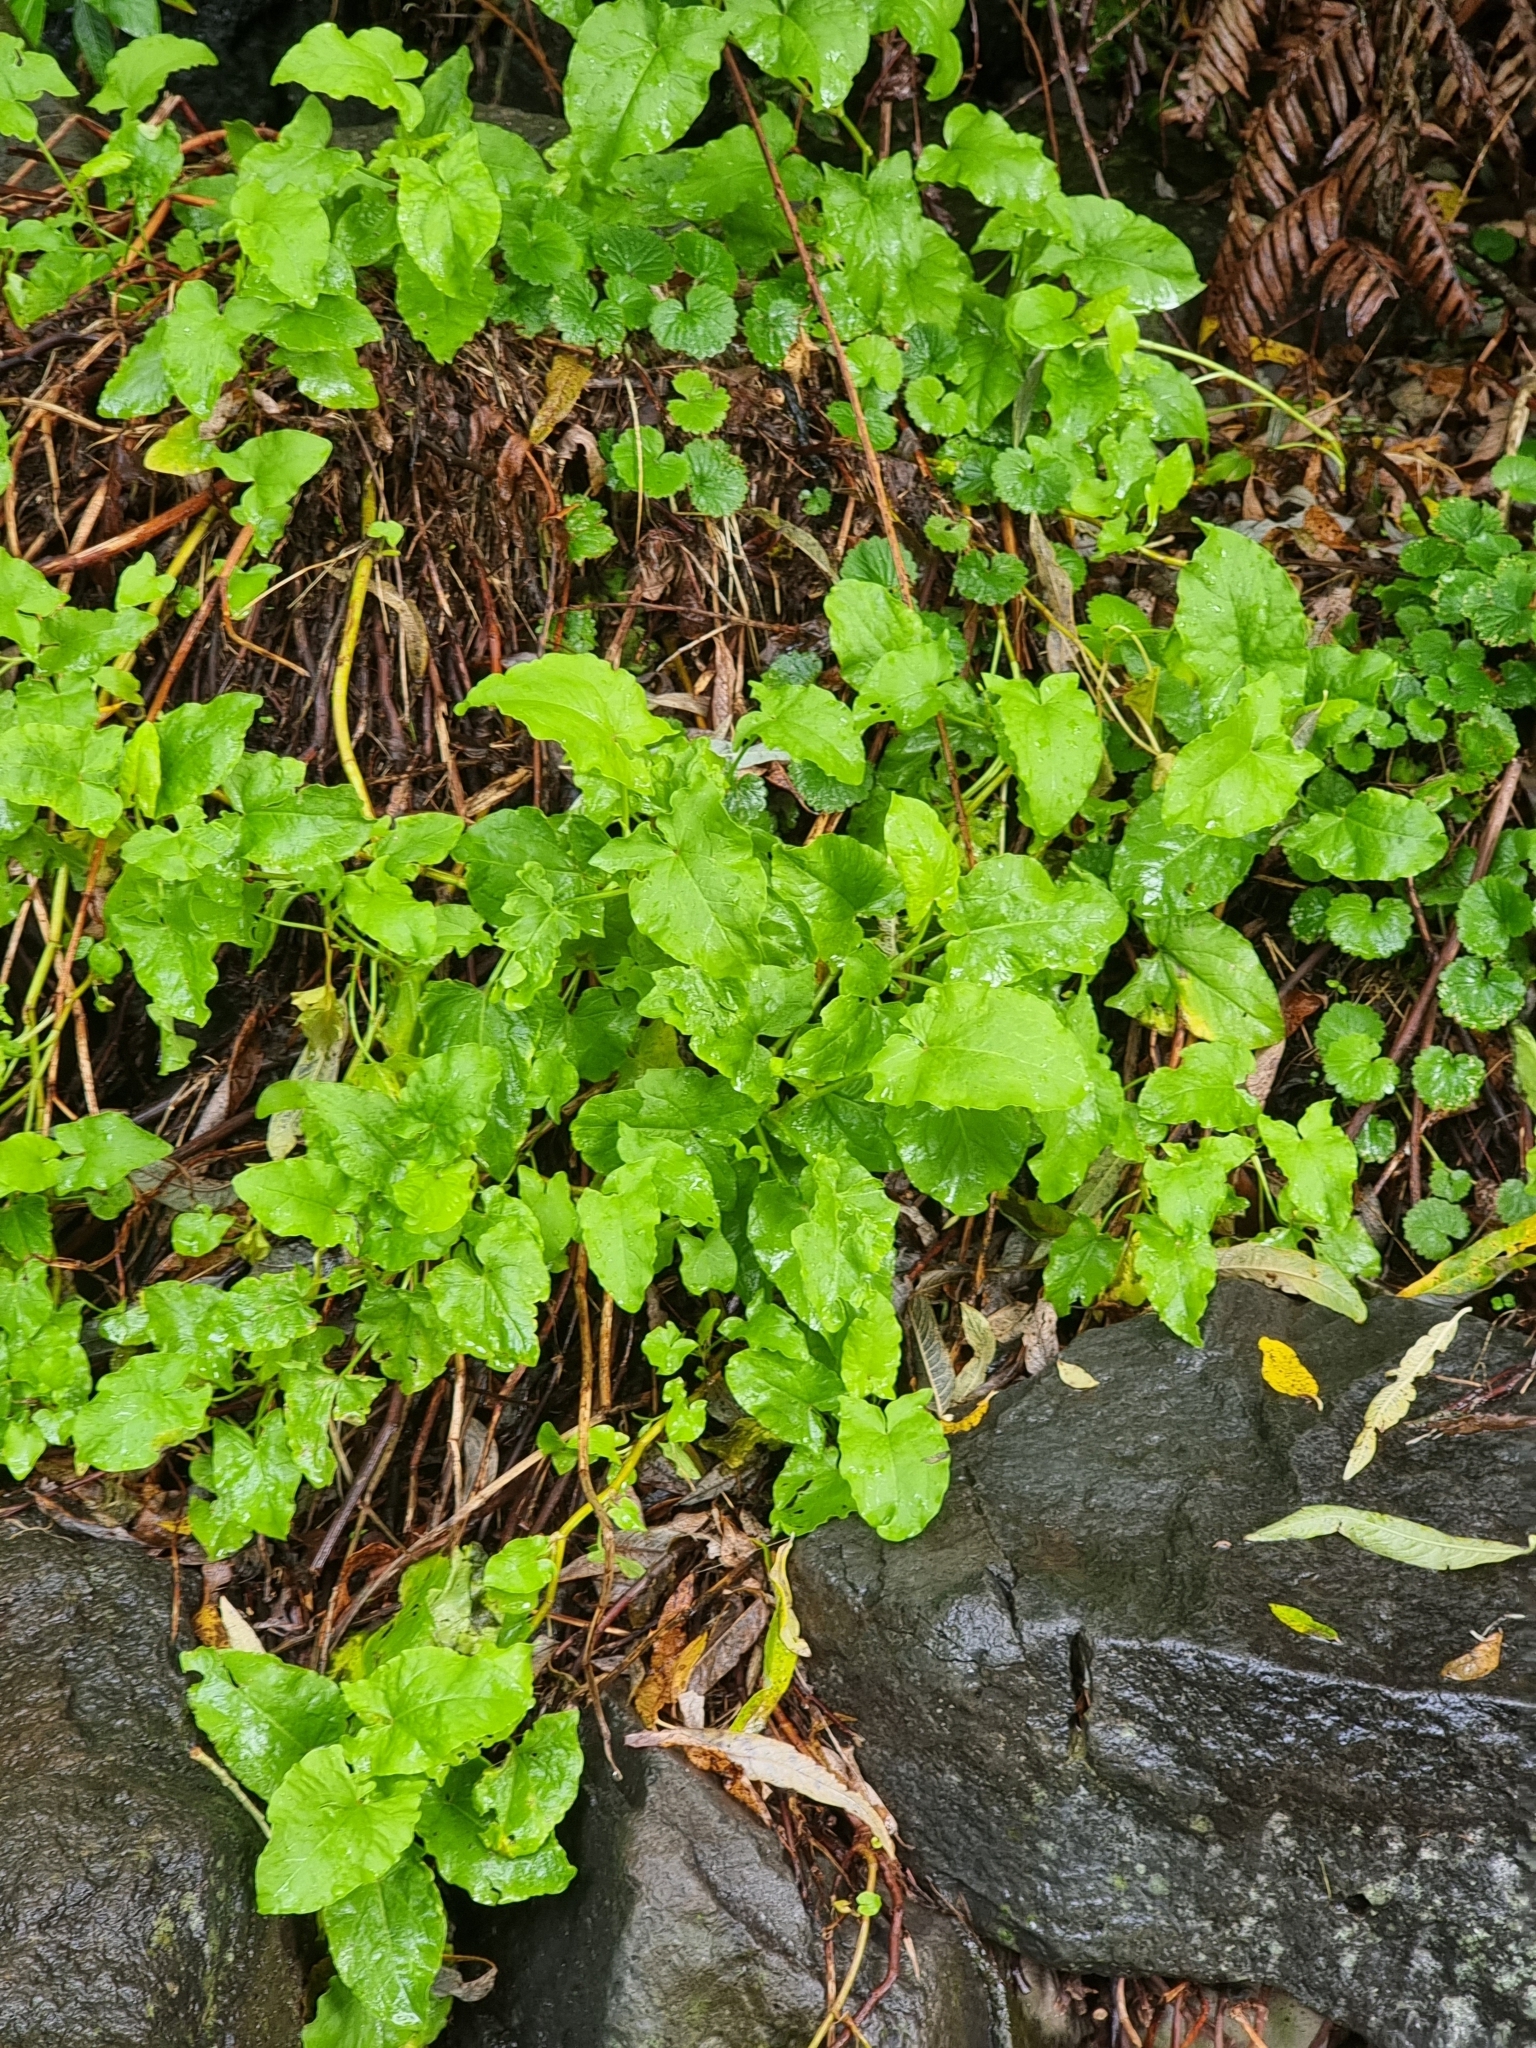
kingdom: Plantae
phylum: Tracheophyta
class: Magnoliopsida
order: Caryophyllales
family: Polygonaceae
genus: Rumex
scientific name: Rumex maderensis
